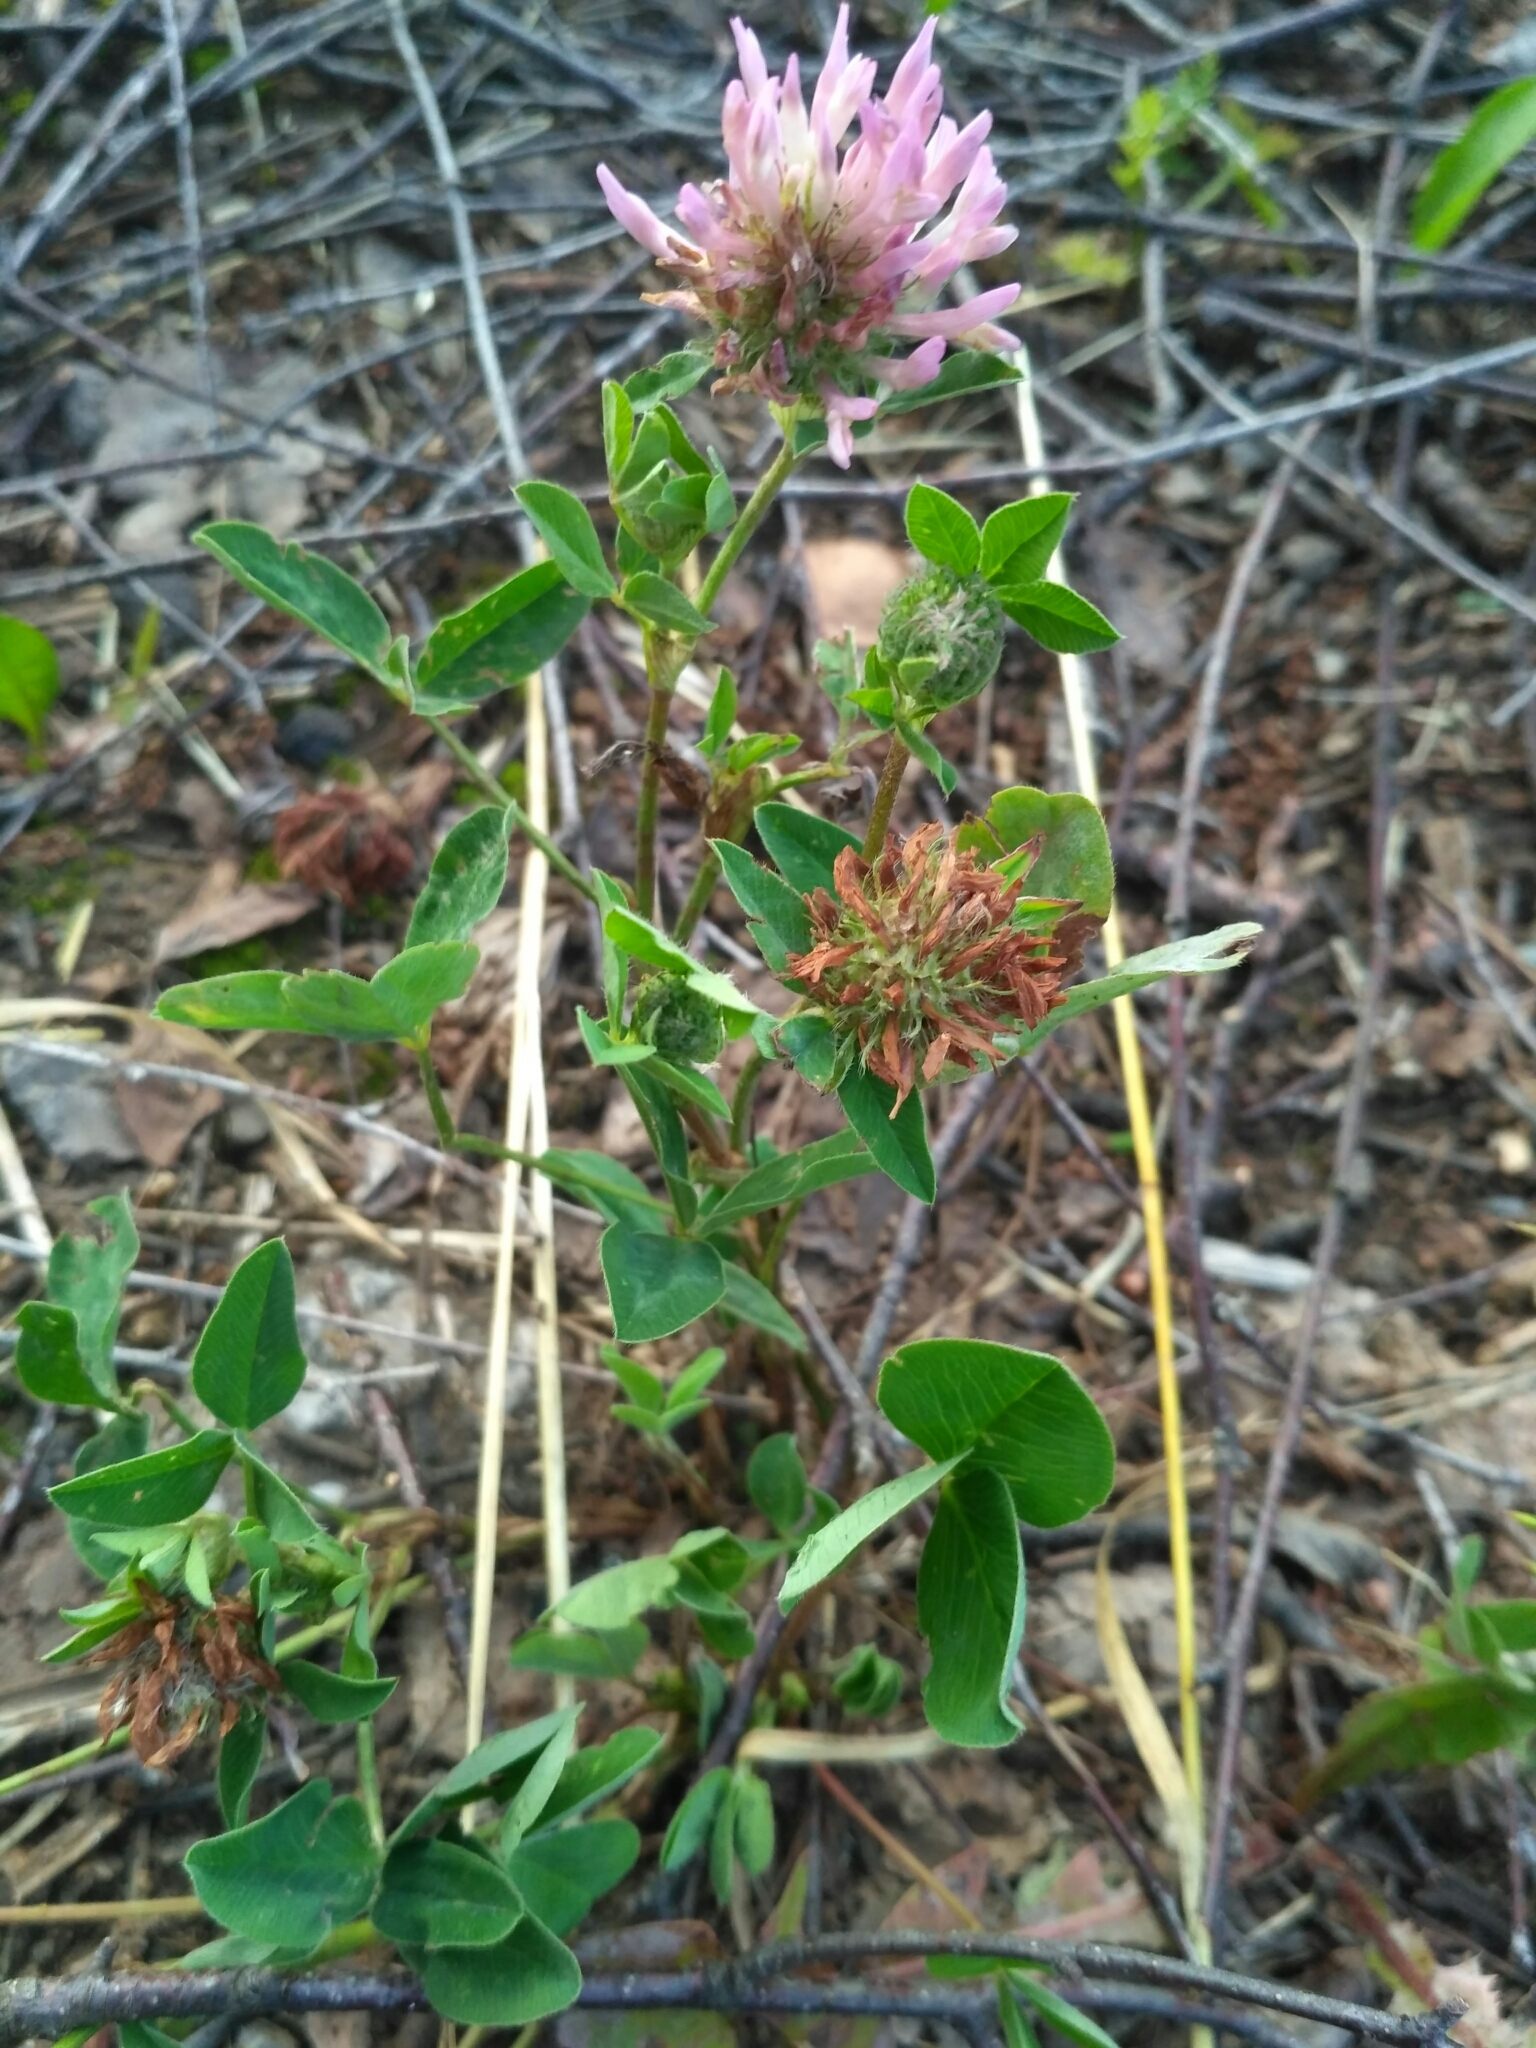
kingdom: Plantae
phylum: Tracheophyta
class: Magnoliopsida
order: Fabales
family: Fabaceae
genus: Trifolium
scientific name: Trifolium pratense
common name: Red clover
